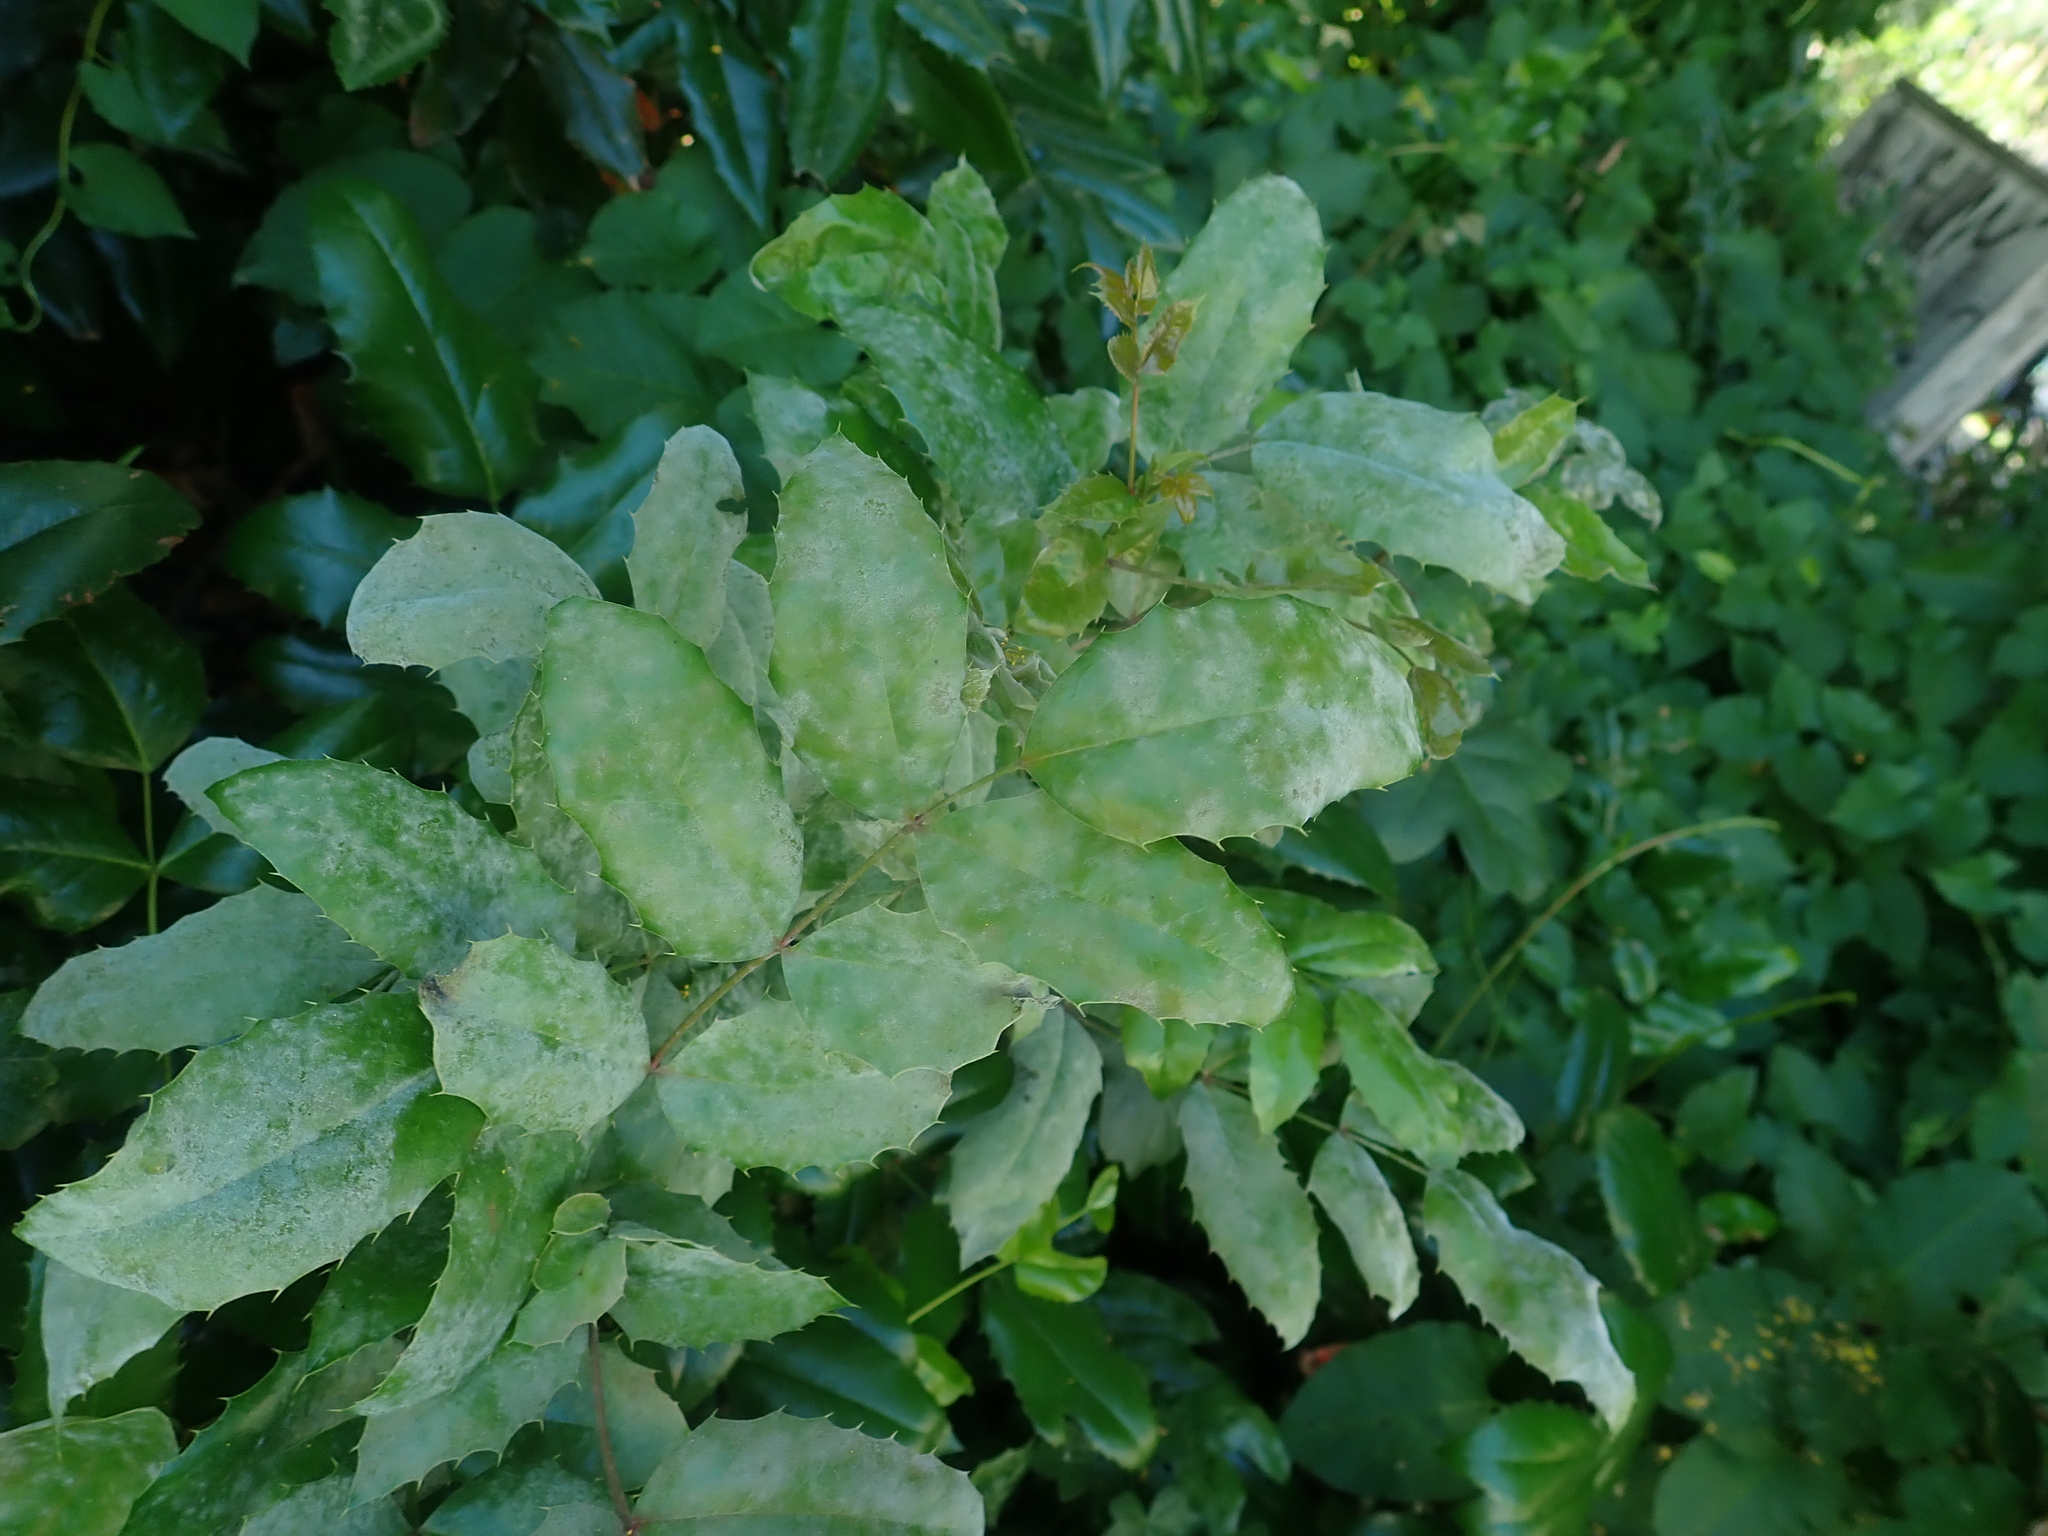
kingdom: Fungi
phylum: Ascomycota
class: Leotiomycetes
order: Helotiales
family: Erysiphaceae
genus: Erysiphe
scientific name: Erysiphe berberidis
